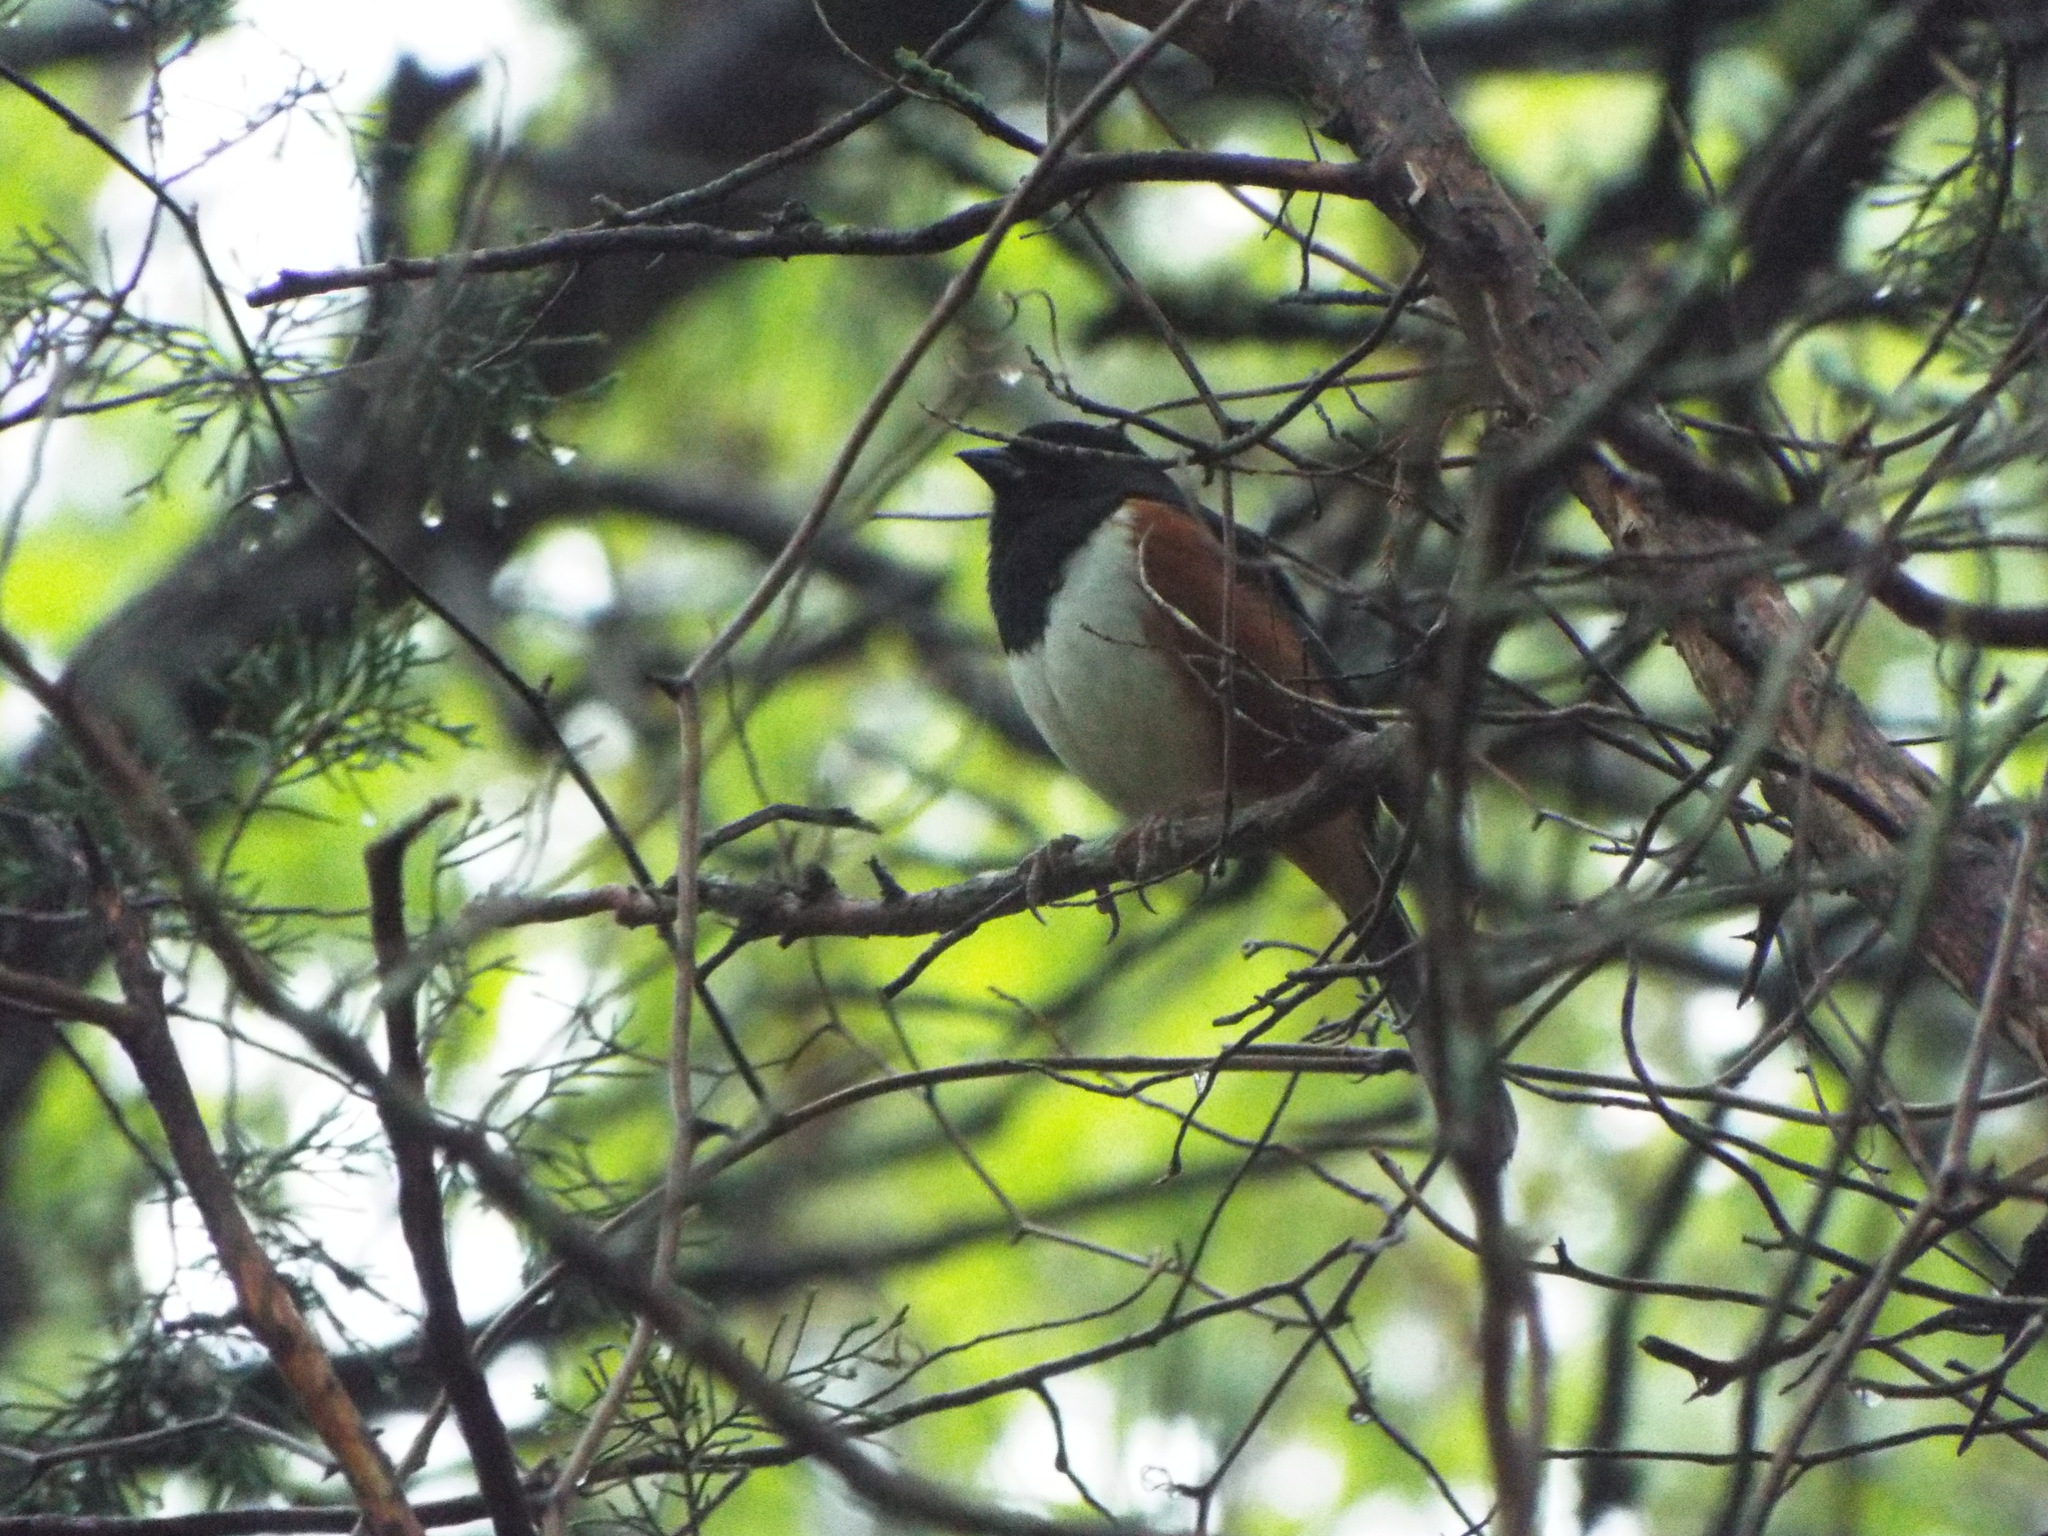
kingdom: Animalia
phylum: Chordata
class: Aves
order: Passeriformes
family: Passerellidae
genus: Pipilo
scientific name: Pipilo erythrophthalmus
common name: Eastern towhee
